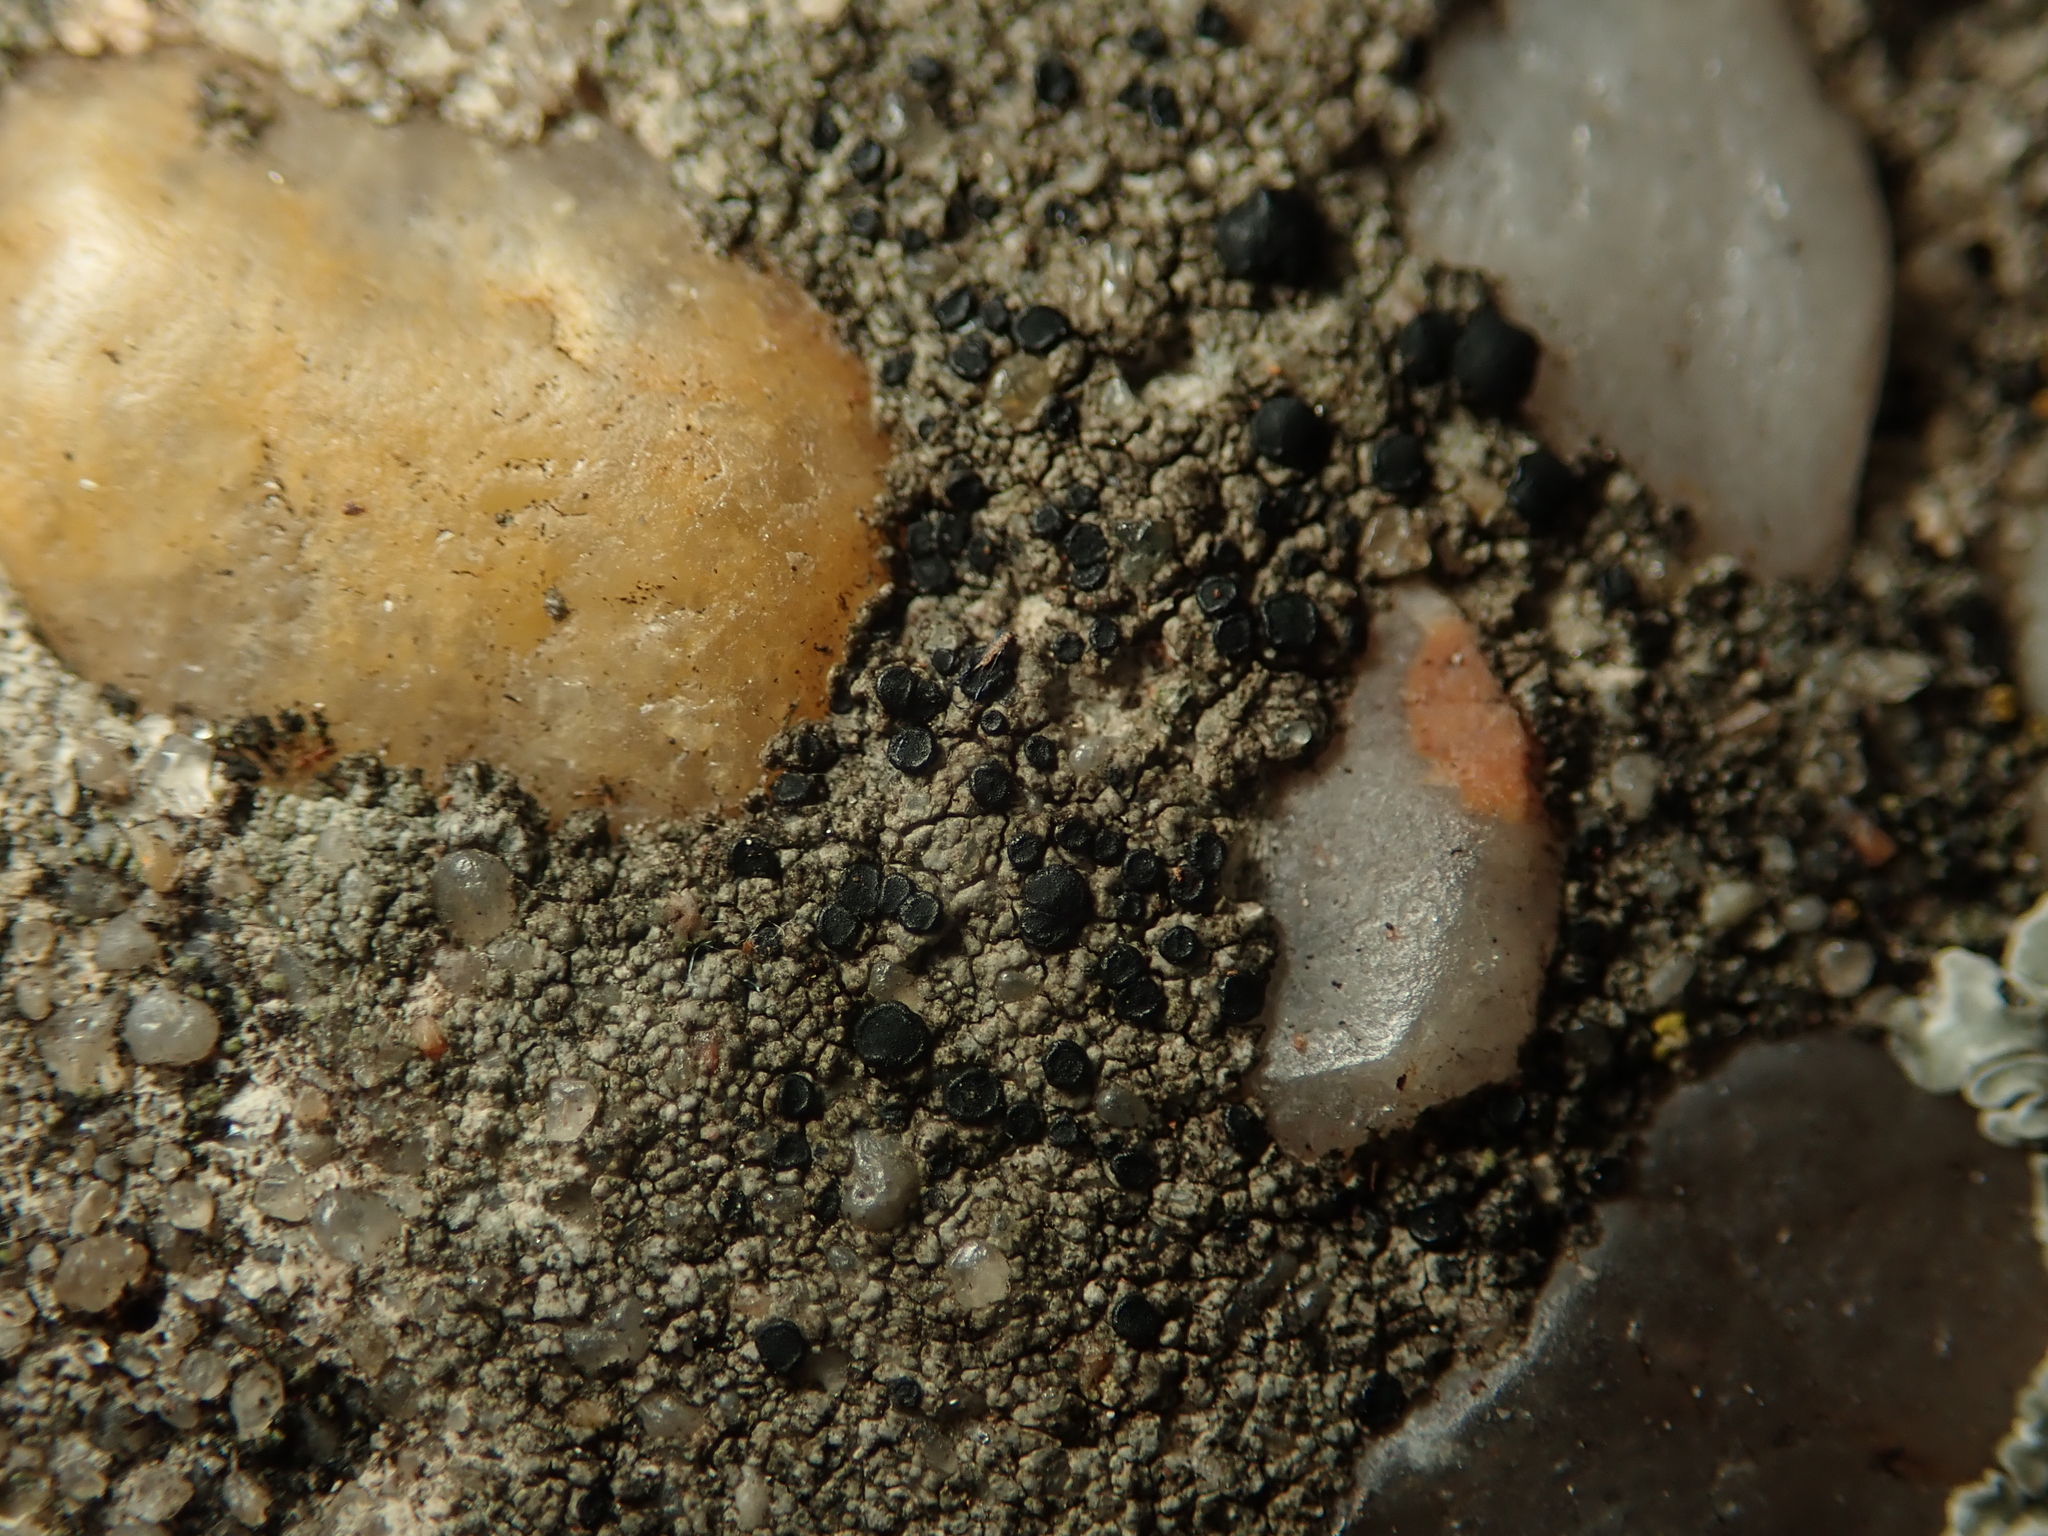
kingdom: Fungi
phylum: Ascomycota
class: Lecanoromycetes
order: Lecanorales
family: Lecanoraceae
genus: Lecidella
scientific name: Lecidella stigmatea
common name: Limestone disc lichen
